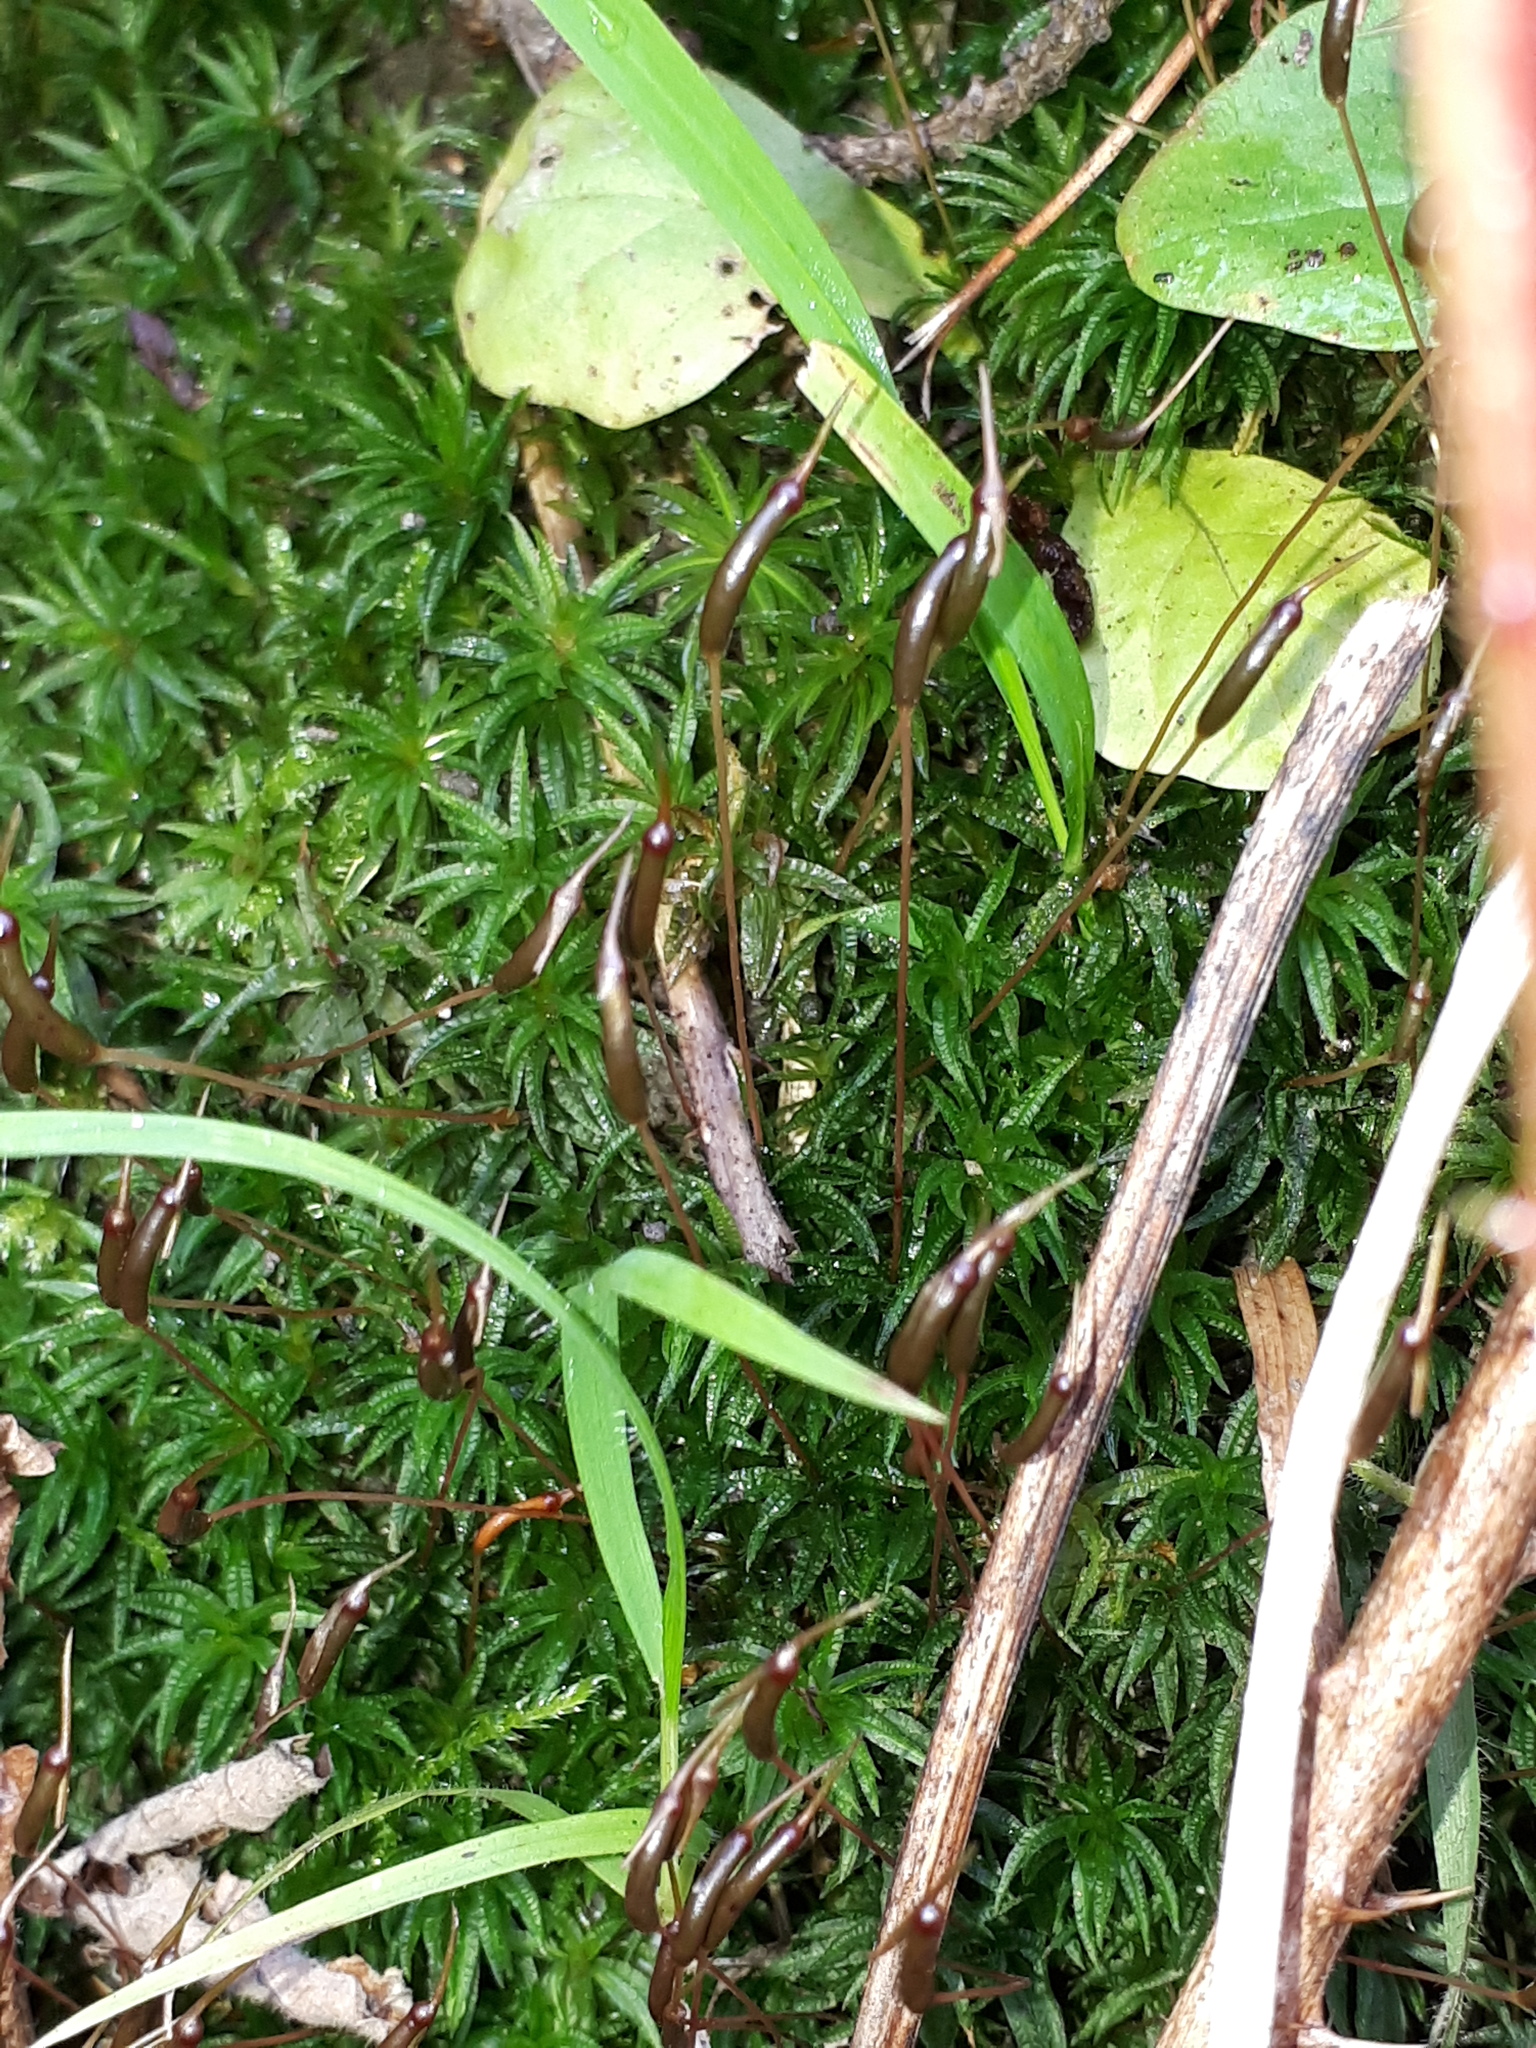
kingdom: Plantae
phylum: Bryophyta
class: Polytrichopsida
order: Polytrichales
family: Polytrichaceae
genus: Atrichum
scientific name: Atrichum undulatum
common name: Common smoothcap
